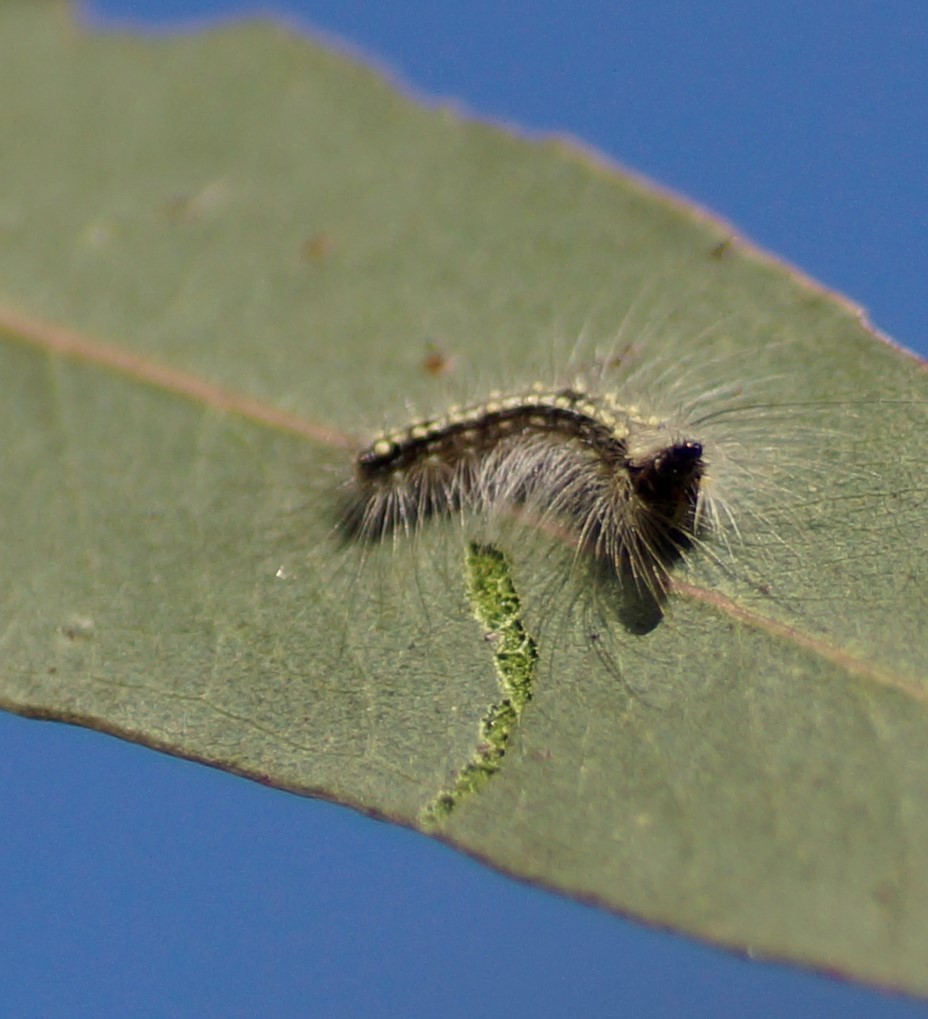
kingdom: Animalia
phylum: Arthropoda
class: Insecta
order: Lepidoptera
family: Nolidae
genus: Uraba
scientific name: Uraba lugens
